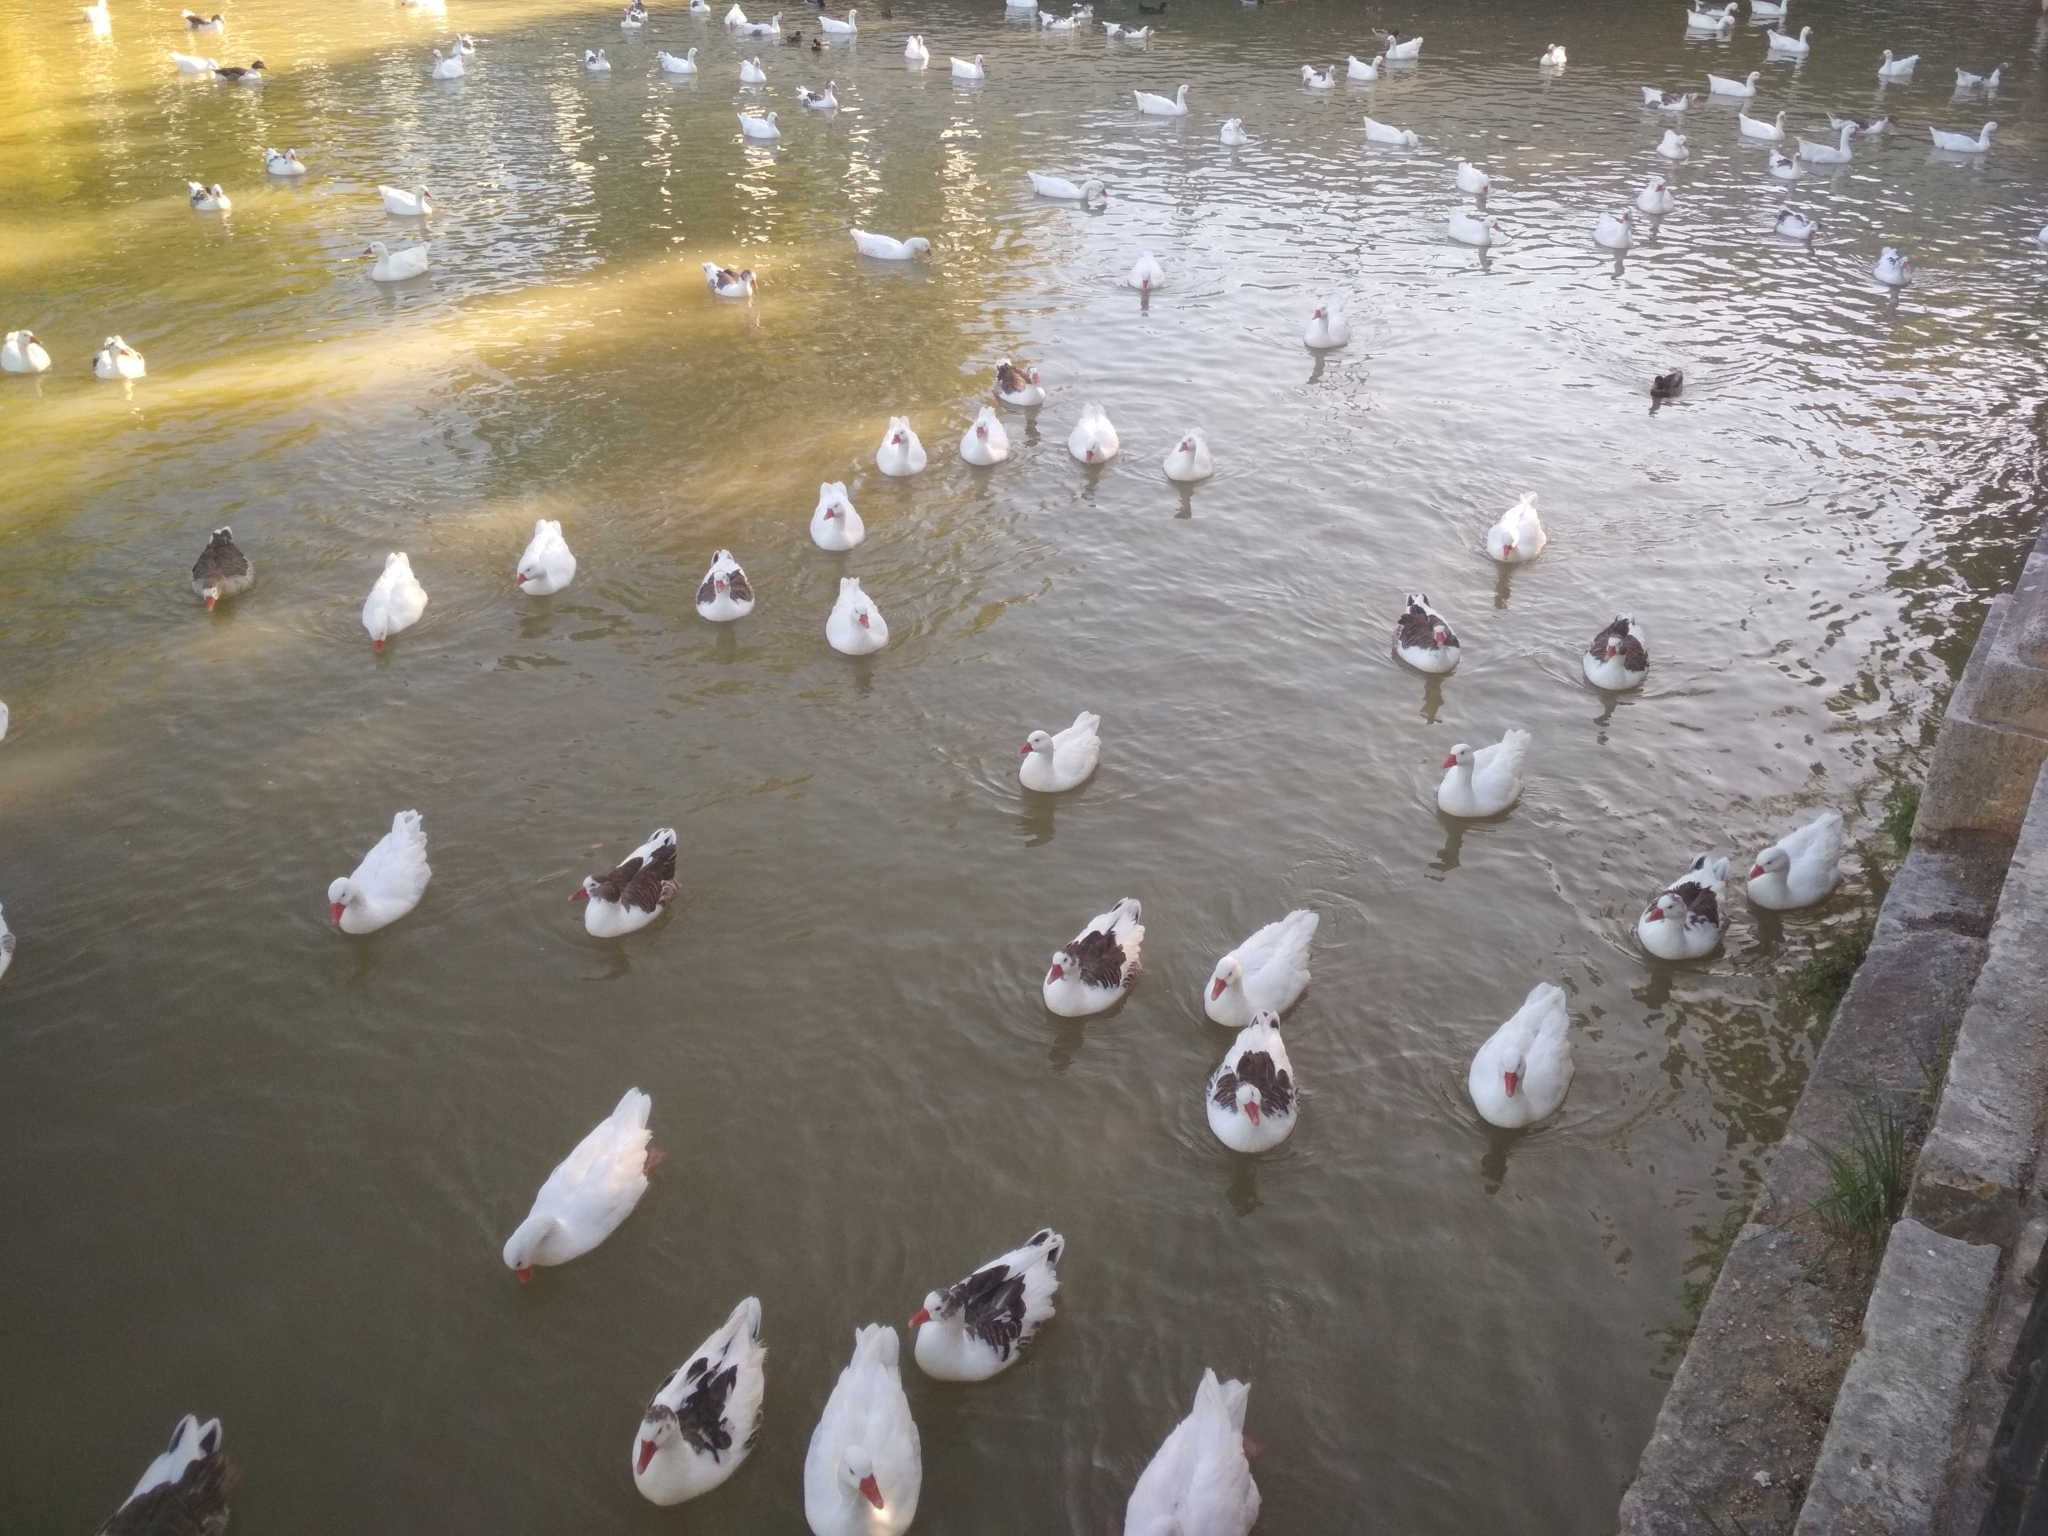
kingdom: Animalia
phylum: Chordata
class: Aves
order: Anseriformes
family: Anatidae
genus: Anser
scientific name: Anser anser
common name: Greylag goose
